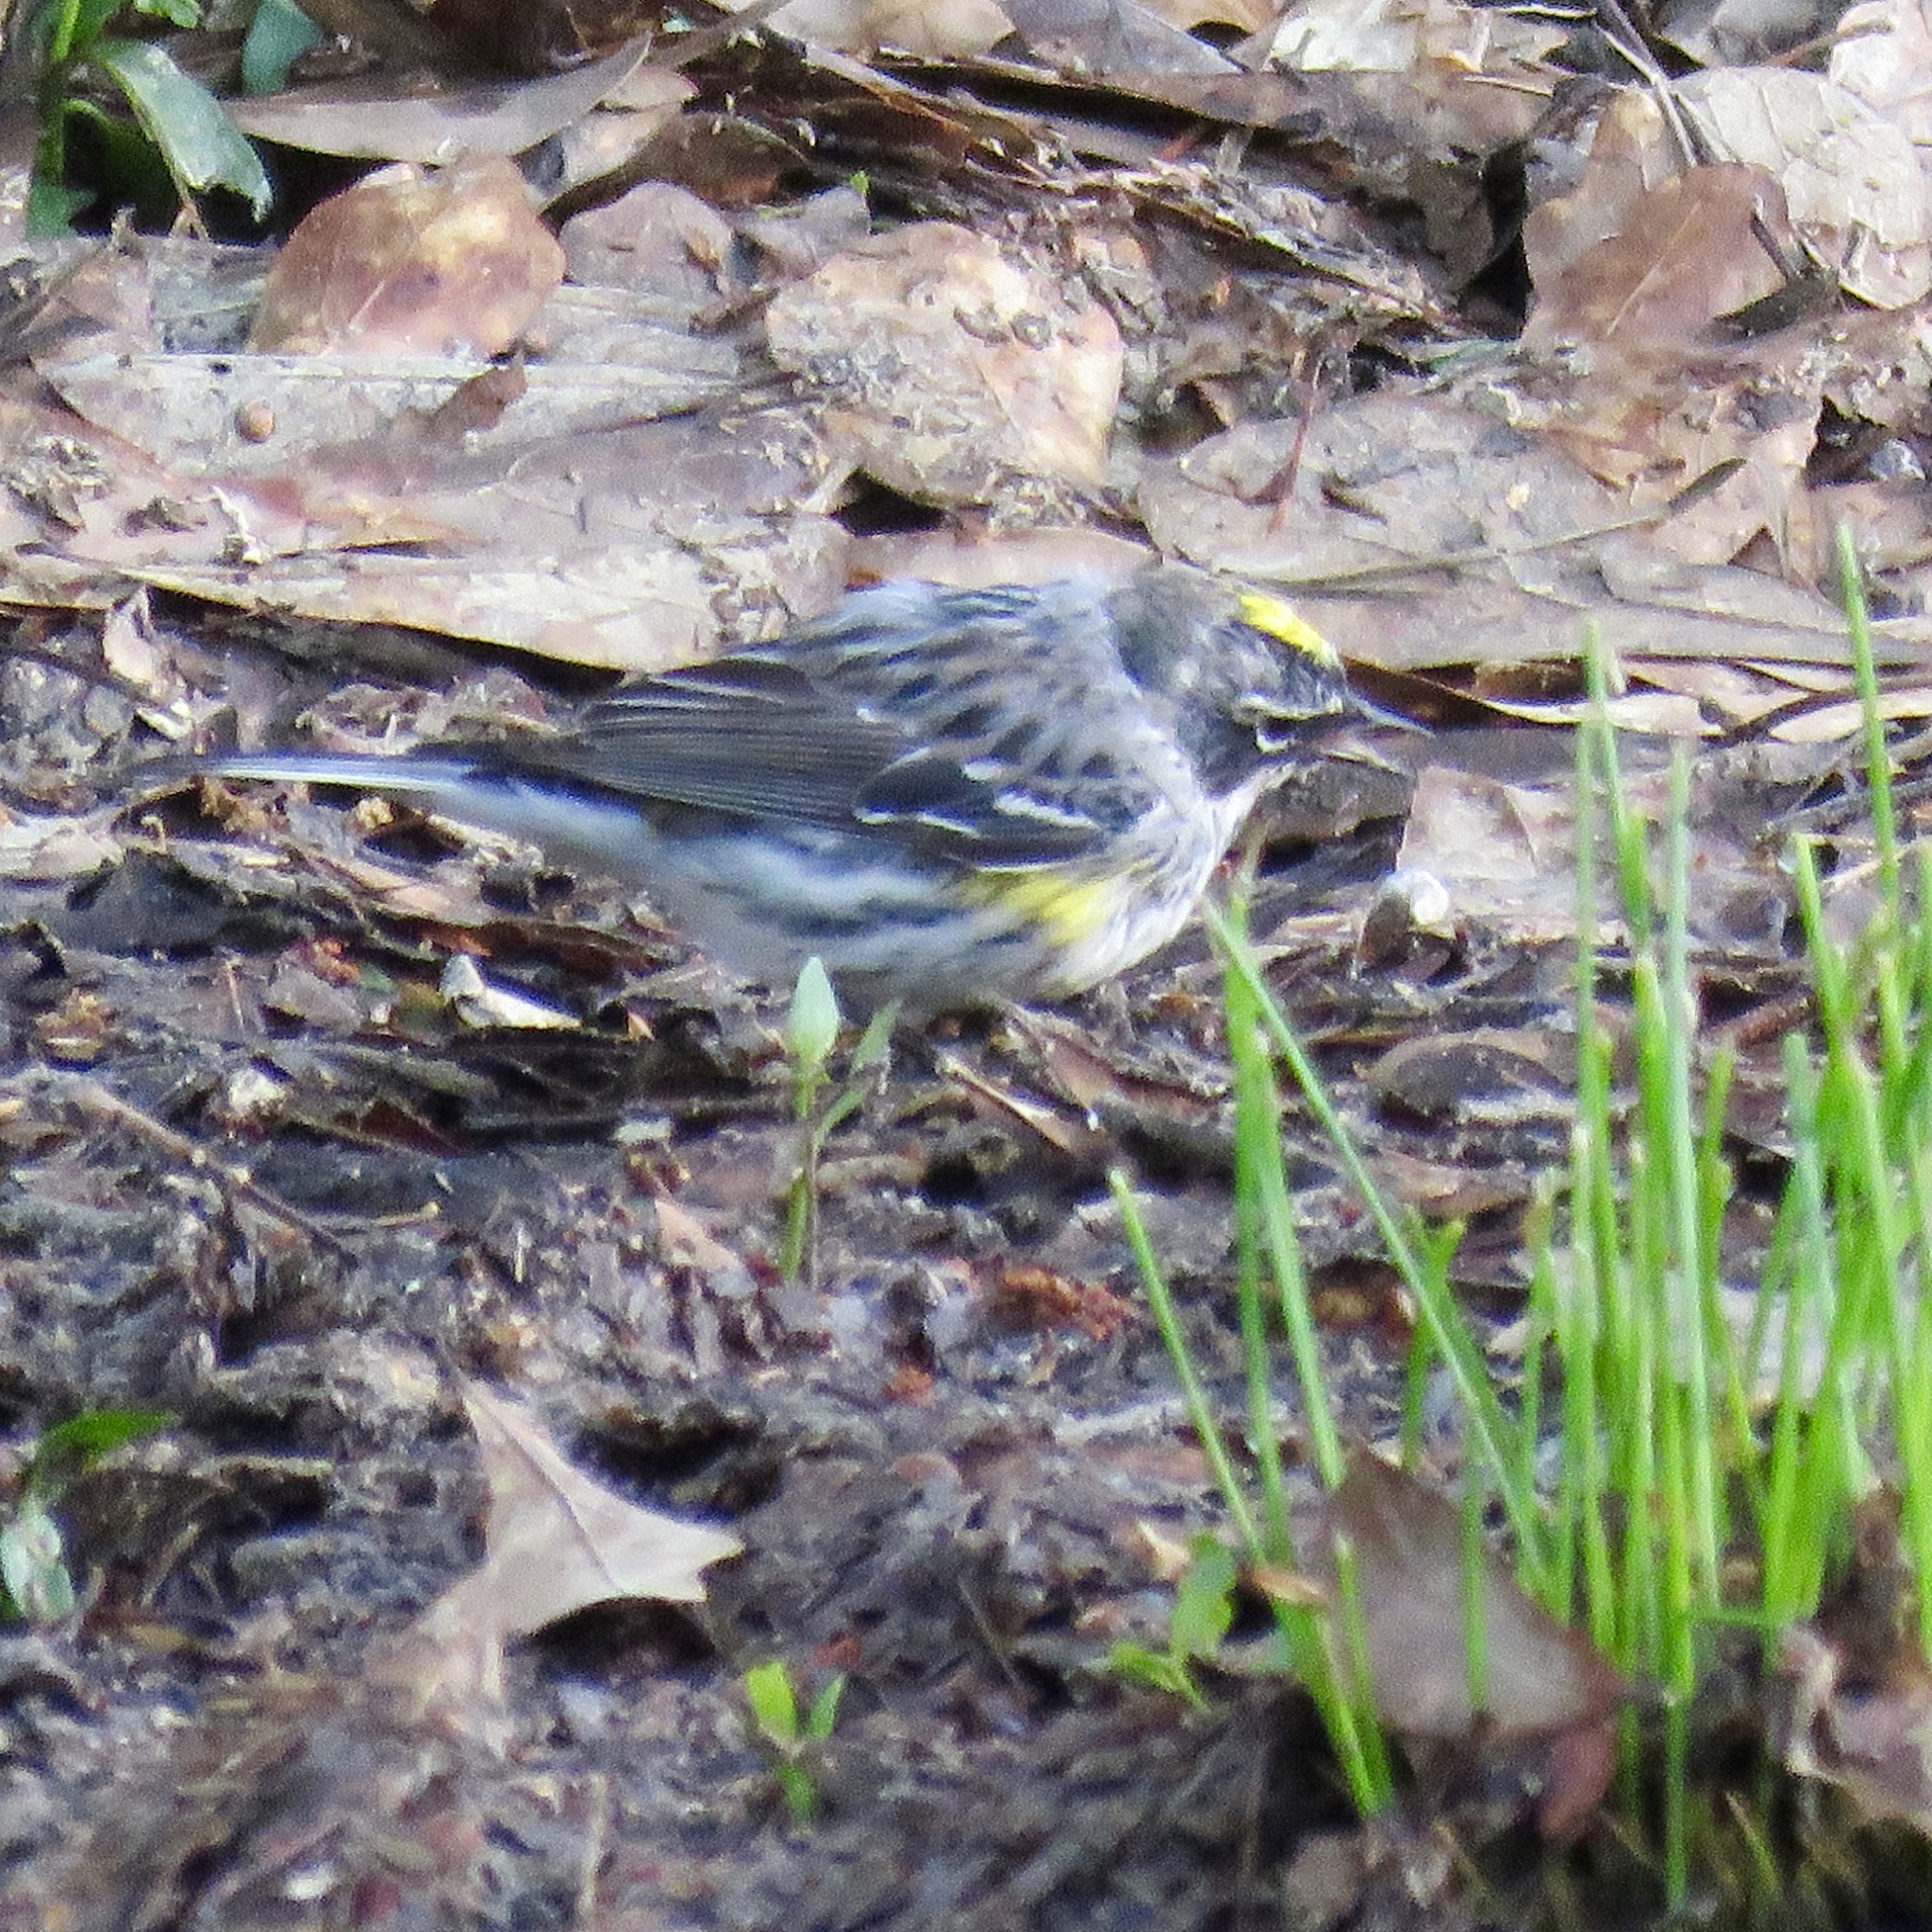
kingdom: Animalia
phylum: Chordata
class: Aves
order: Passeriformes
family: Parulidae
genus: Setophaga
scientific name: Setophaga coronata
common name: Myrtle warbler
